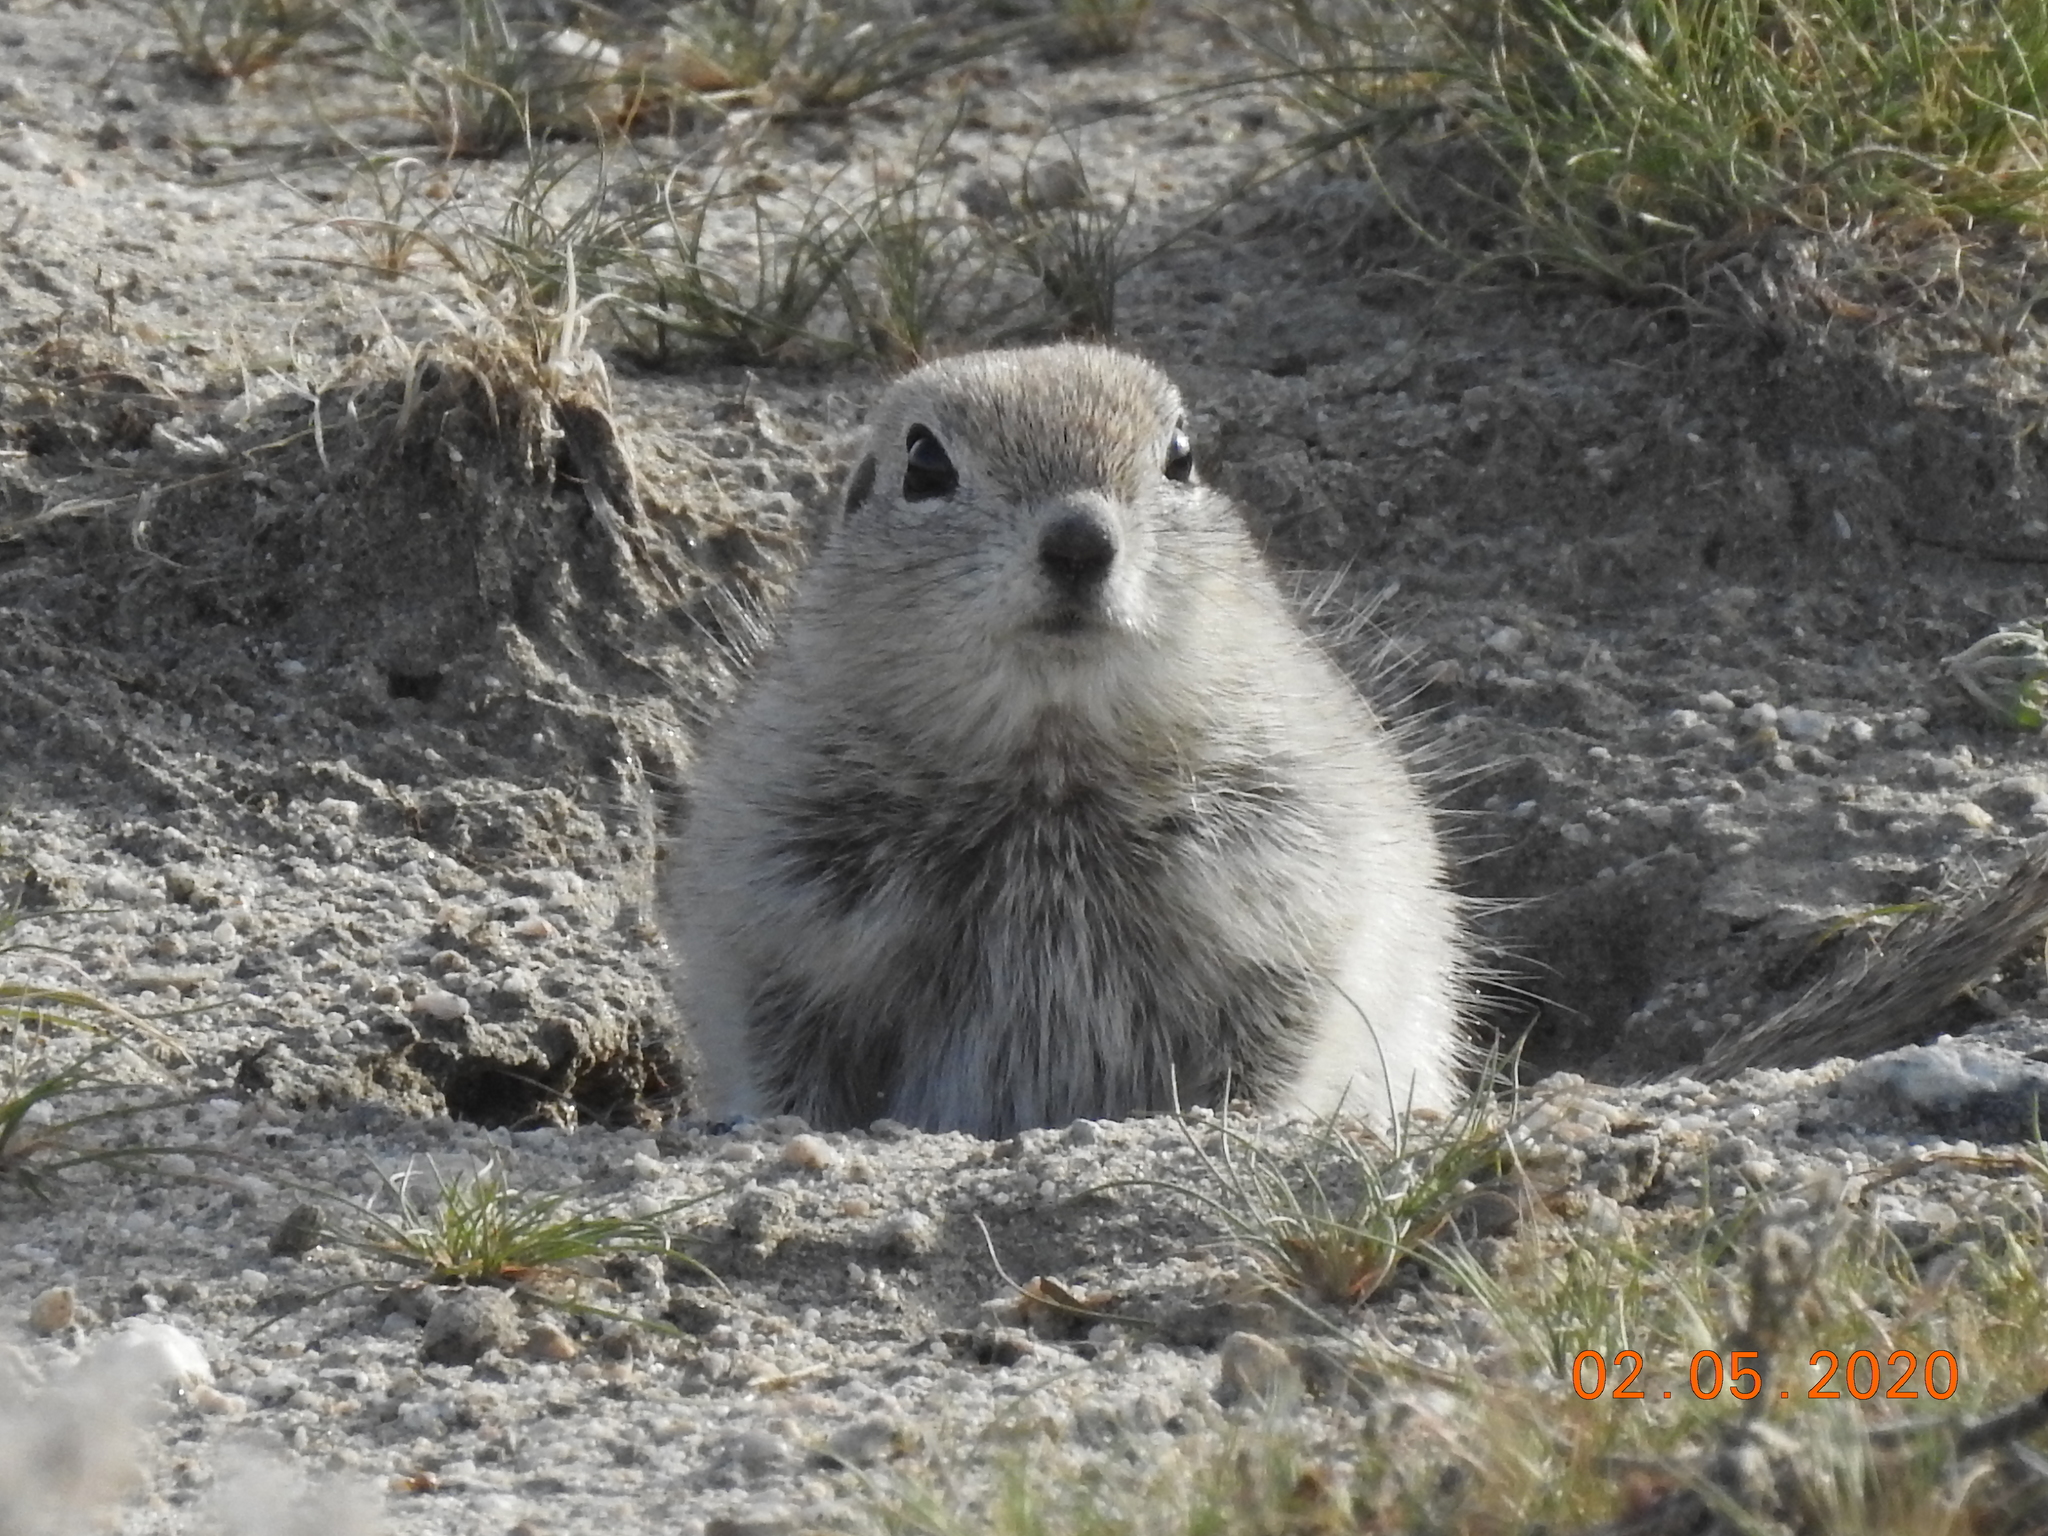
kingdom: Animalia
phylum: Chordata
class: Mammalia
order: Rodentia
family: Sciuridae
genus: Xerospermophilus
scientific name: Xerospermophilus tereticaudus
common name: Round-tailed ground squirrel
